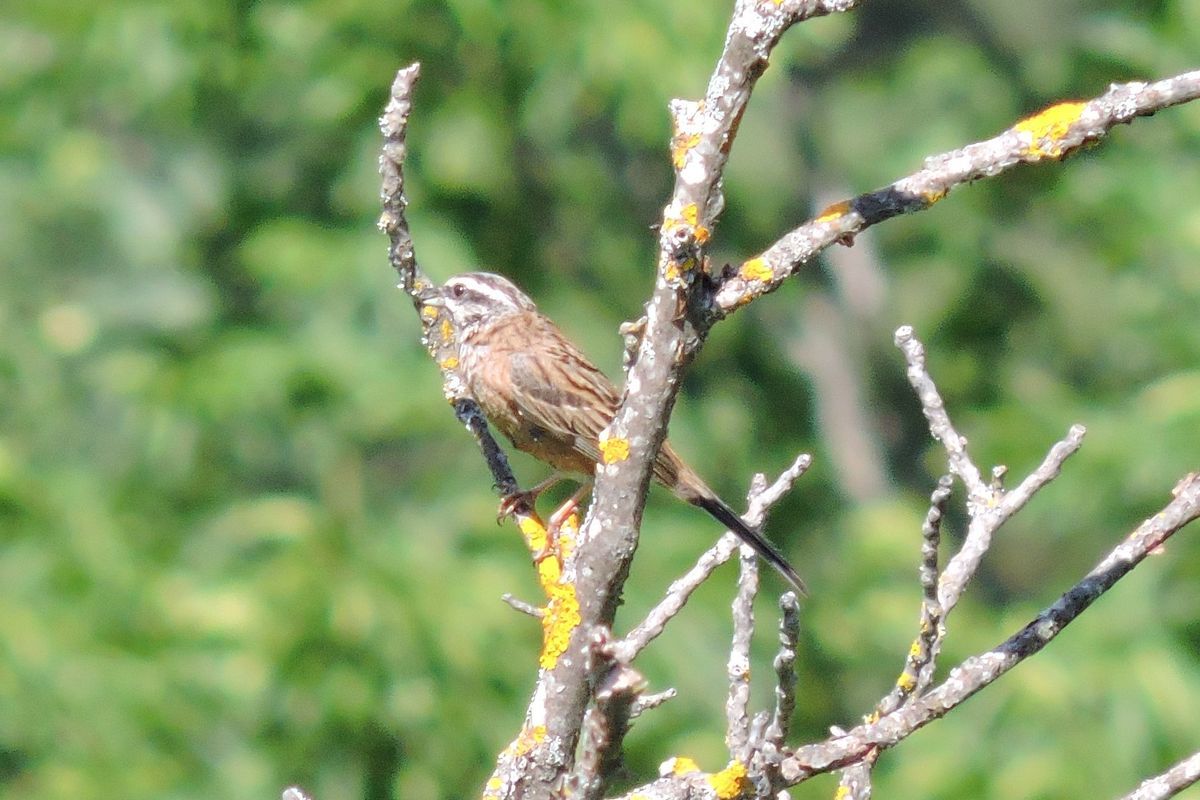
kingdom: Animalia
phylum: Chordata
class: Aves
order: Passeriformes
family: Emberizidae
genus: Emberiza
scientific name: Emberiza cia
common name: Rock bunting
